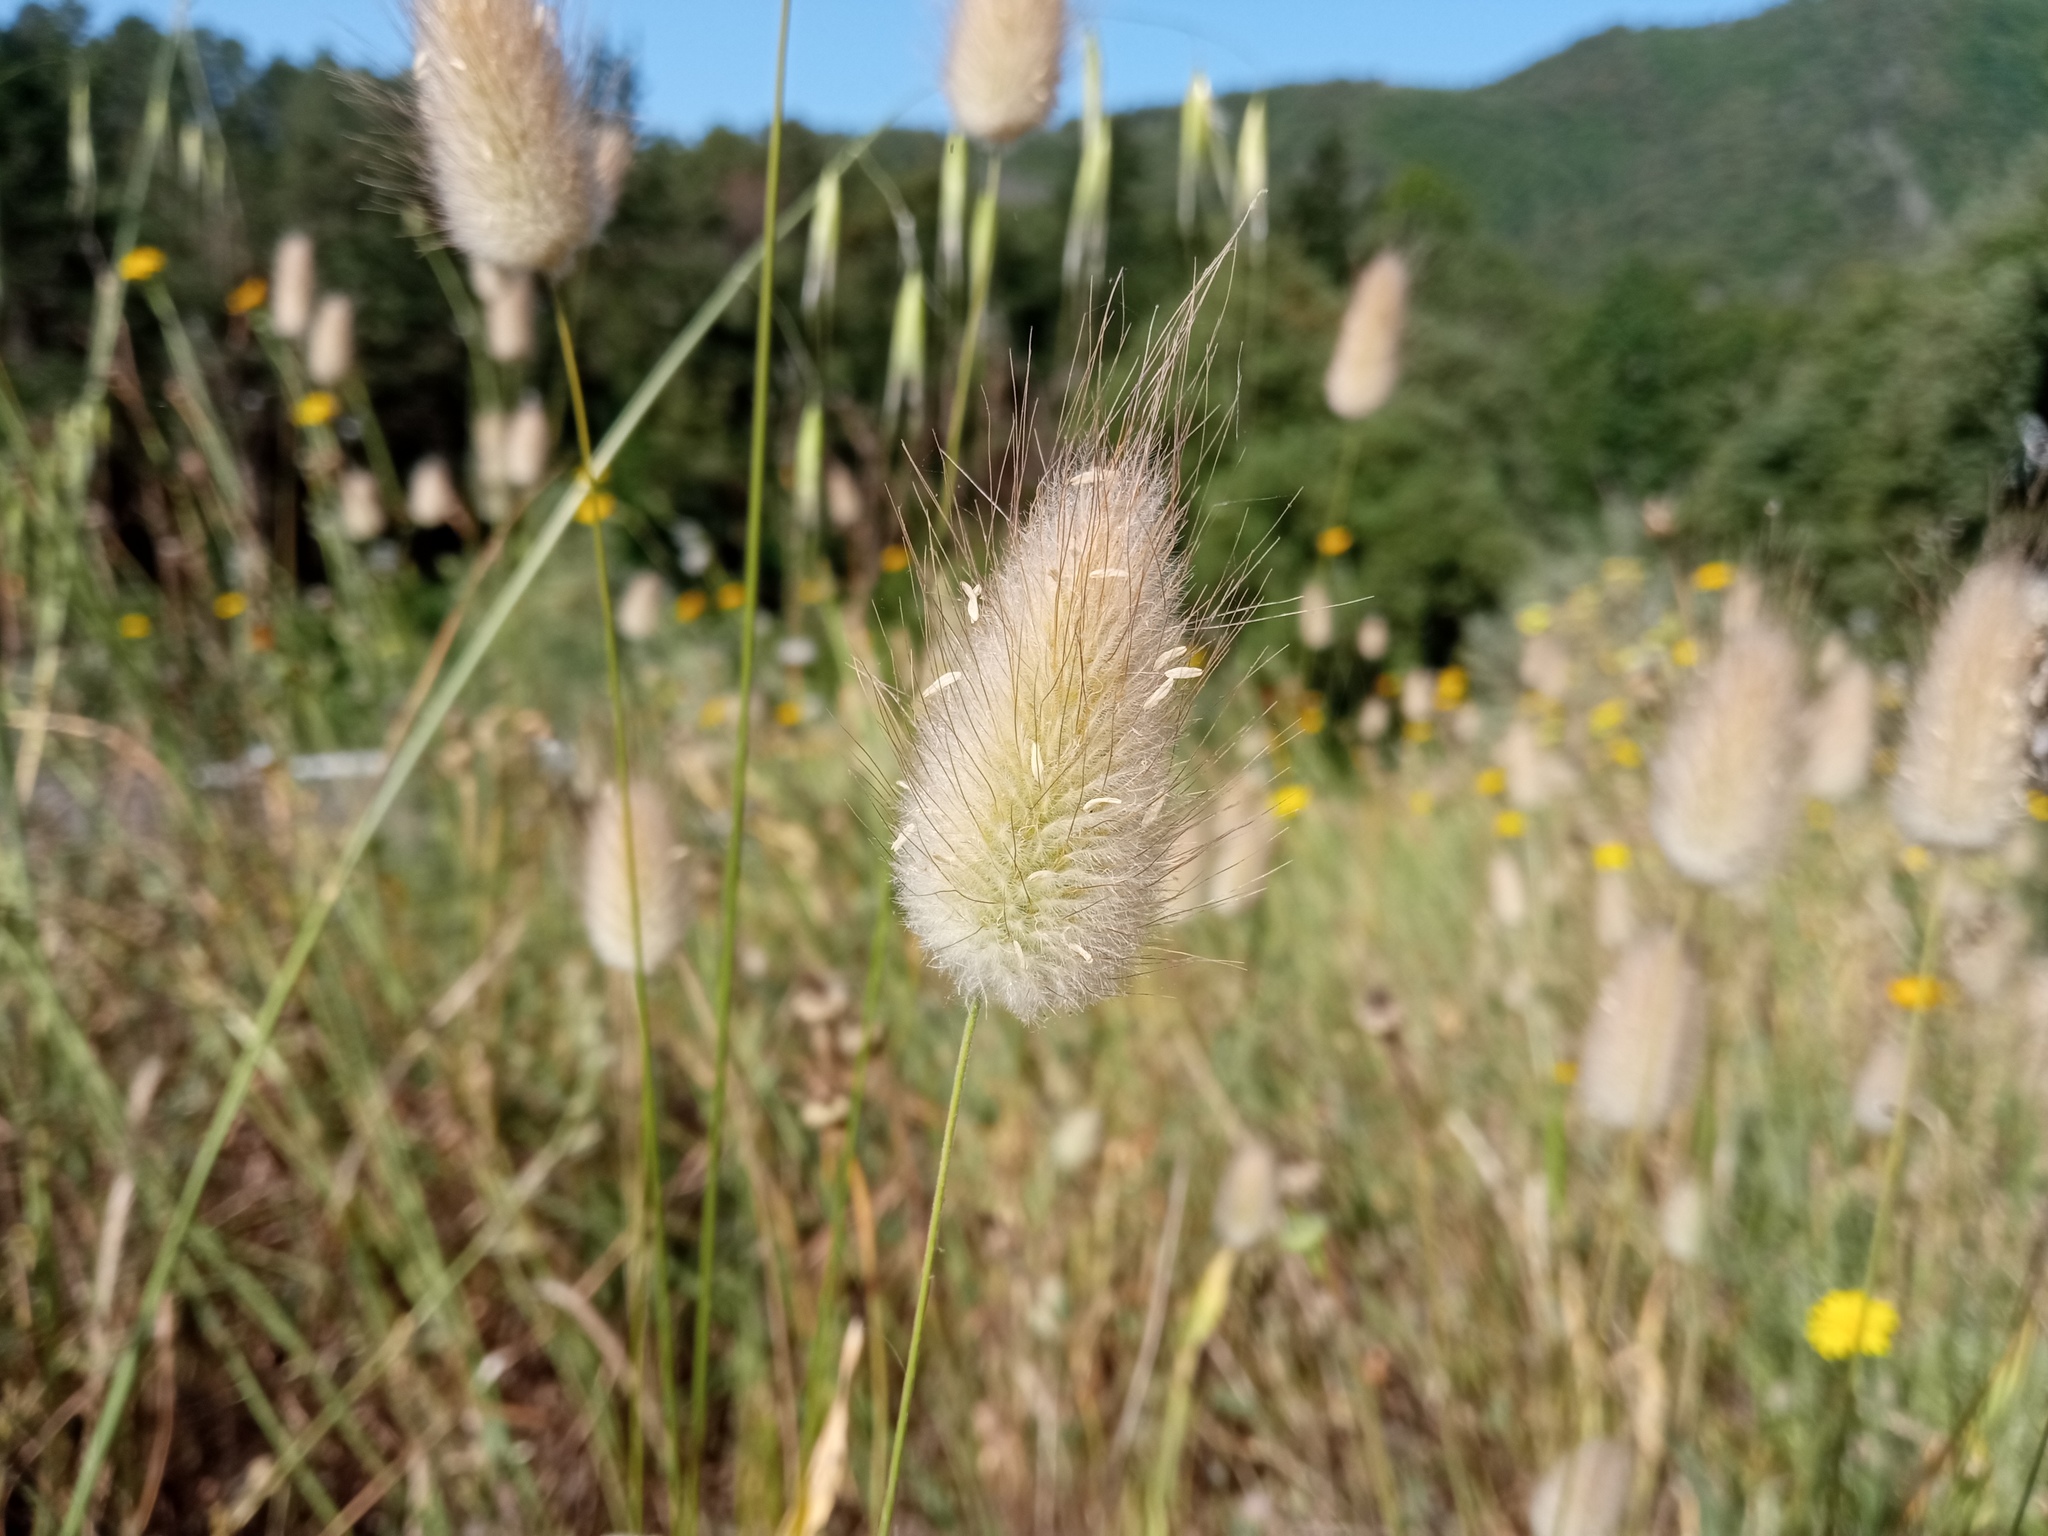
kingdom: Plantae
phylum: Tracheophyta
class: Liliopsida
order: Poales
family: Poaceae
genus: Lagurus
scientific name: Lagurus ovatus
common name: Hare's-tail
